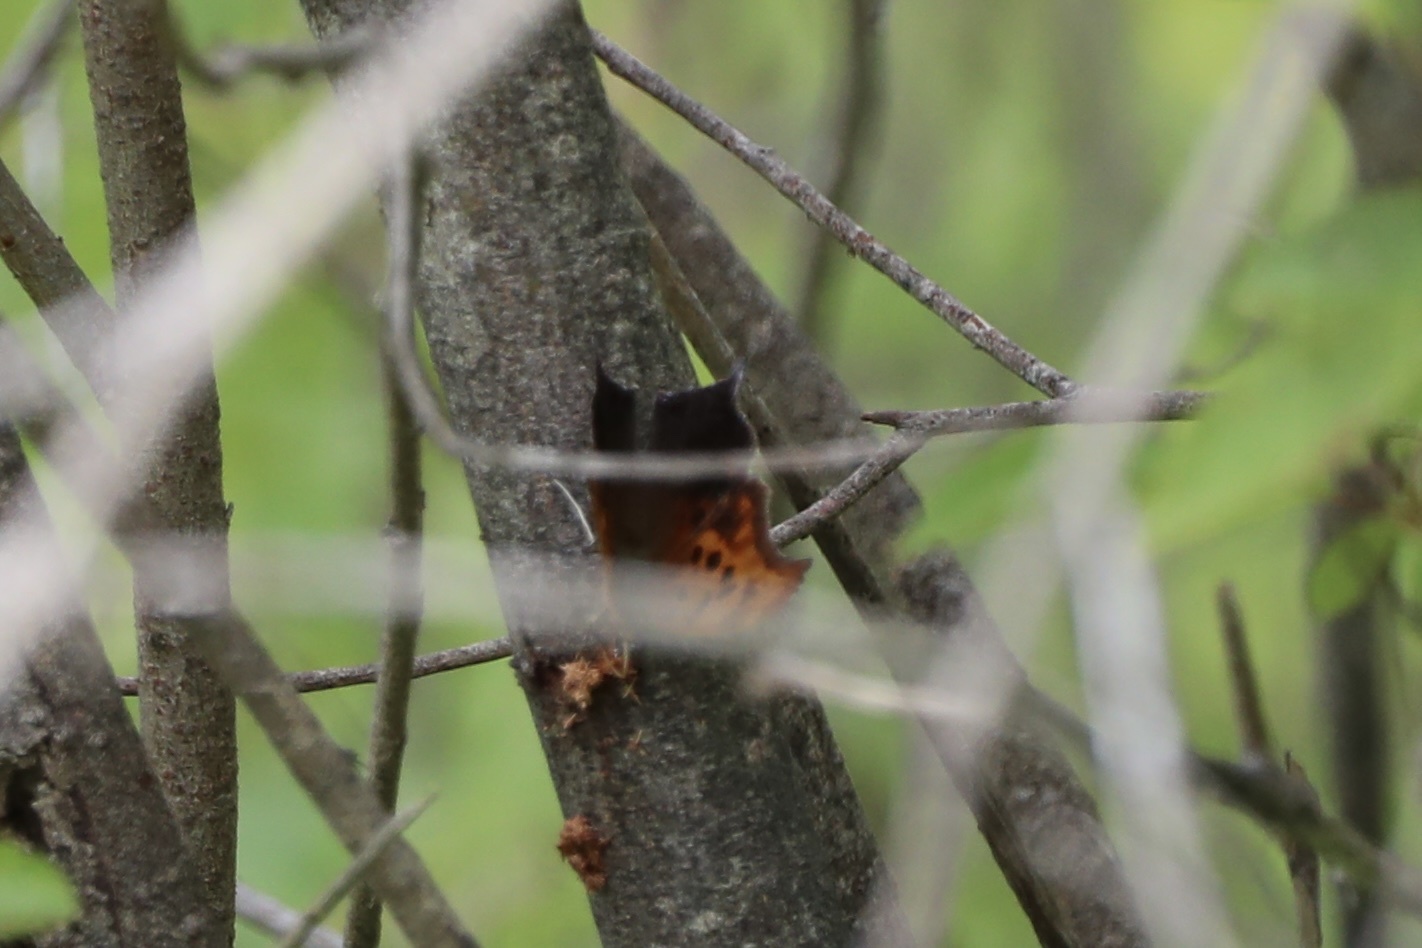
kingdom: Animalia
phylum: Arthropoda
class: Insecta
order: Lepidoptera
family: Nymphalidae
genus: Polygonia
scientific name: Polygonia interrogationis
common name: Question mark
